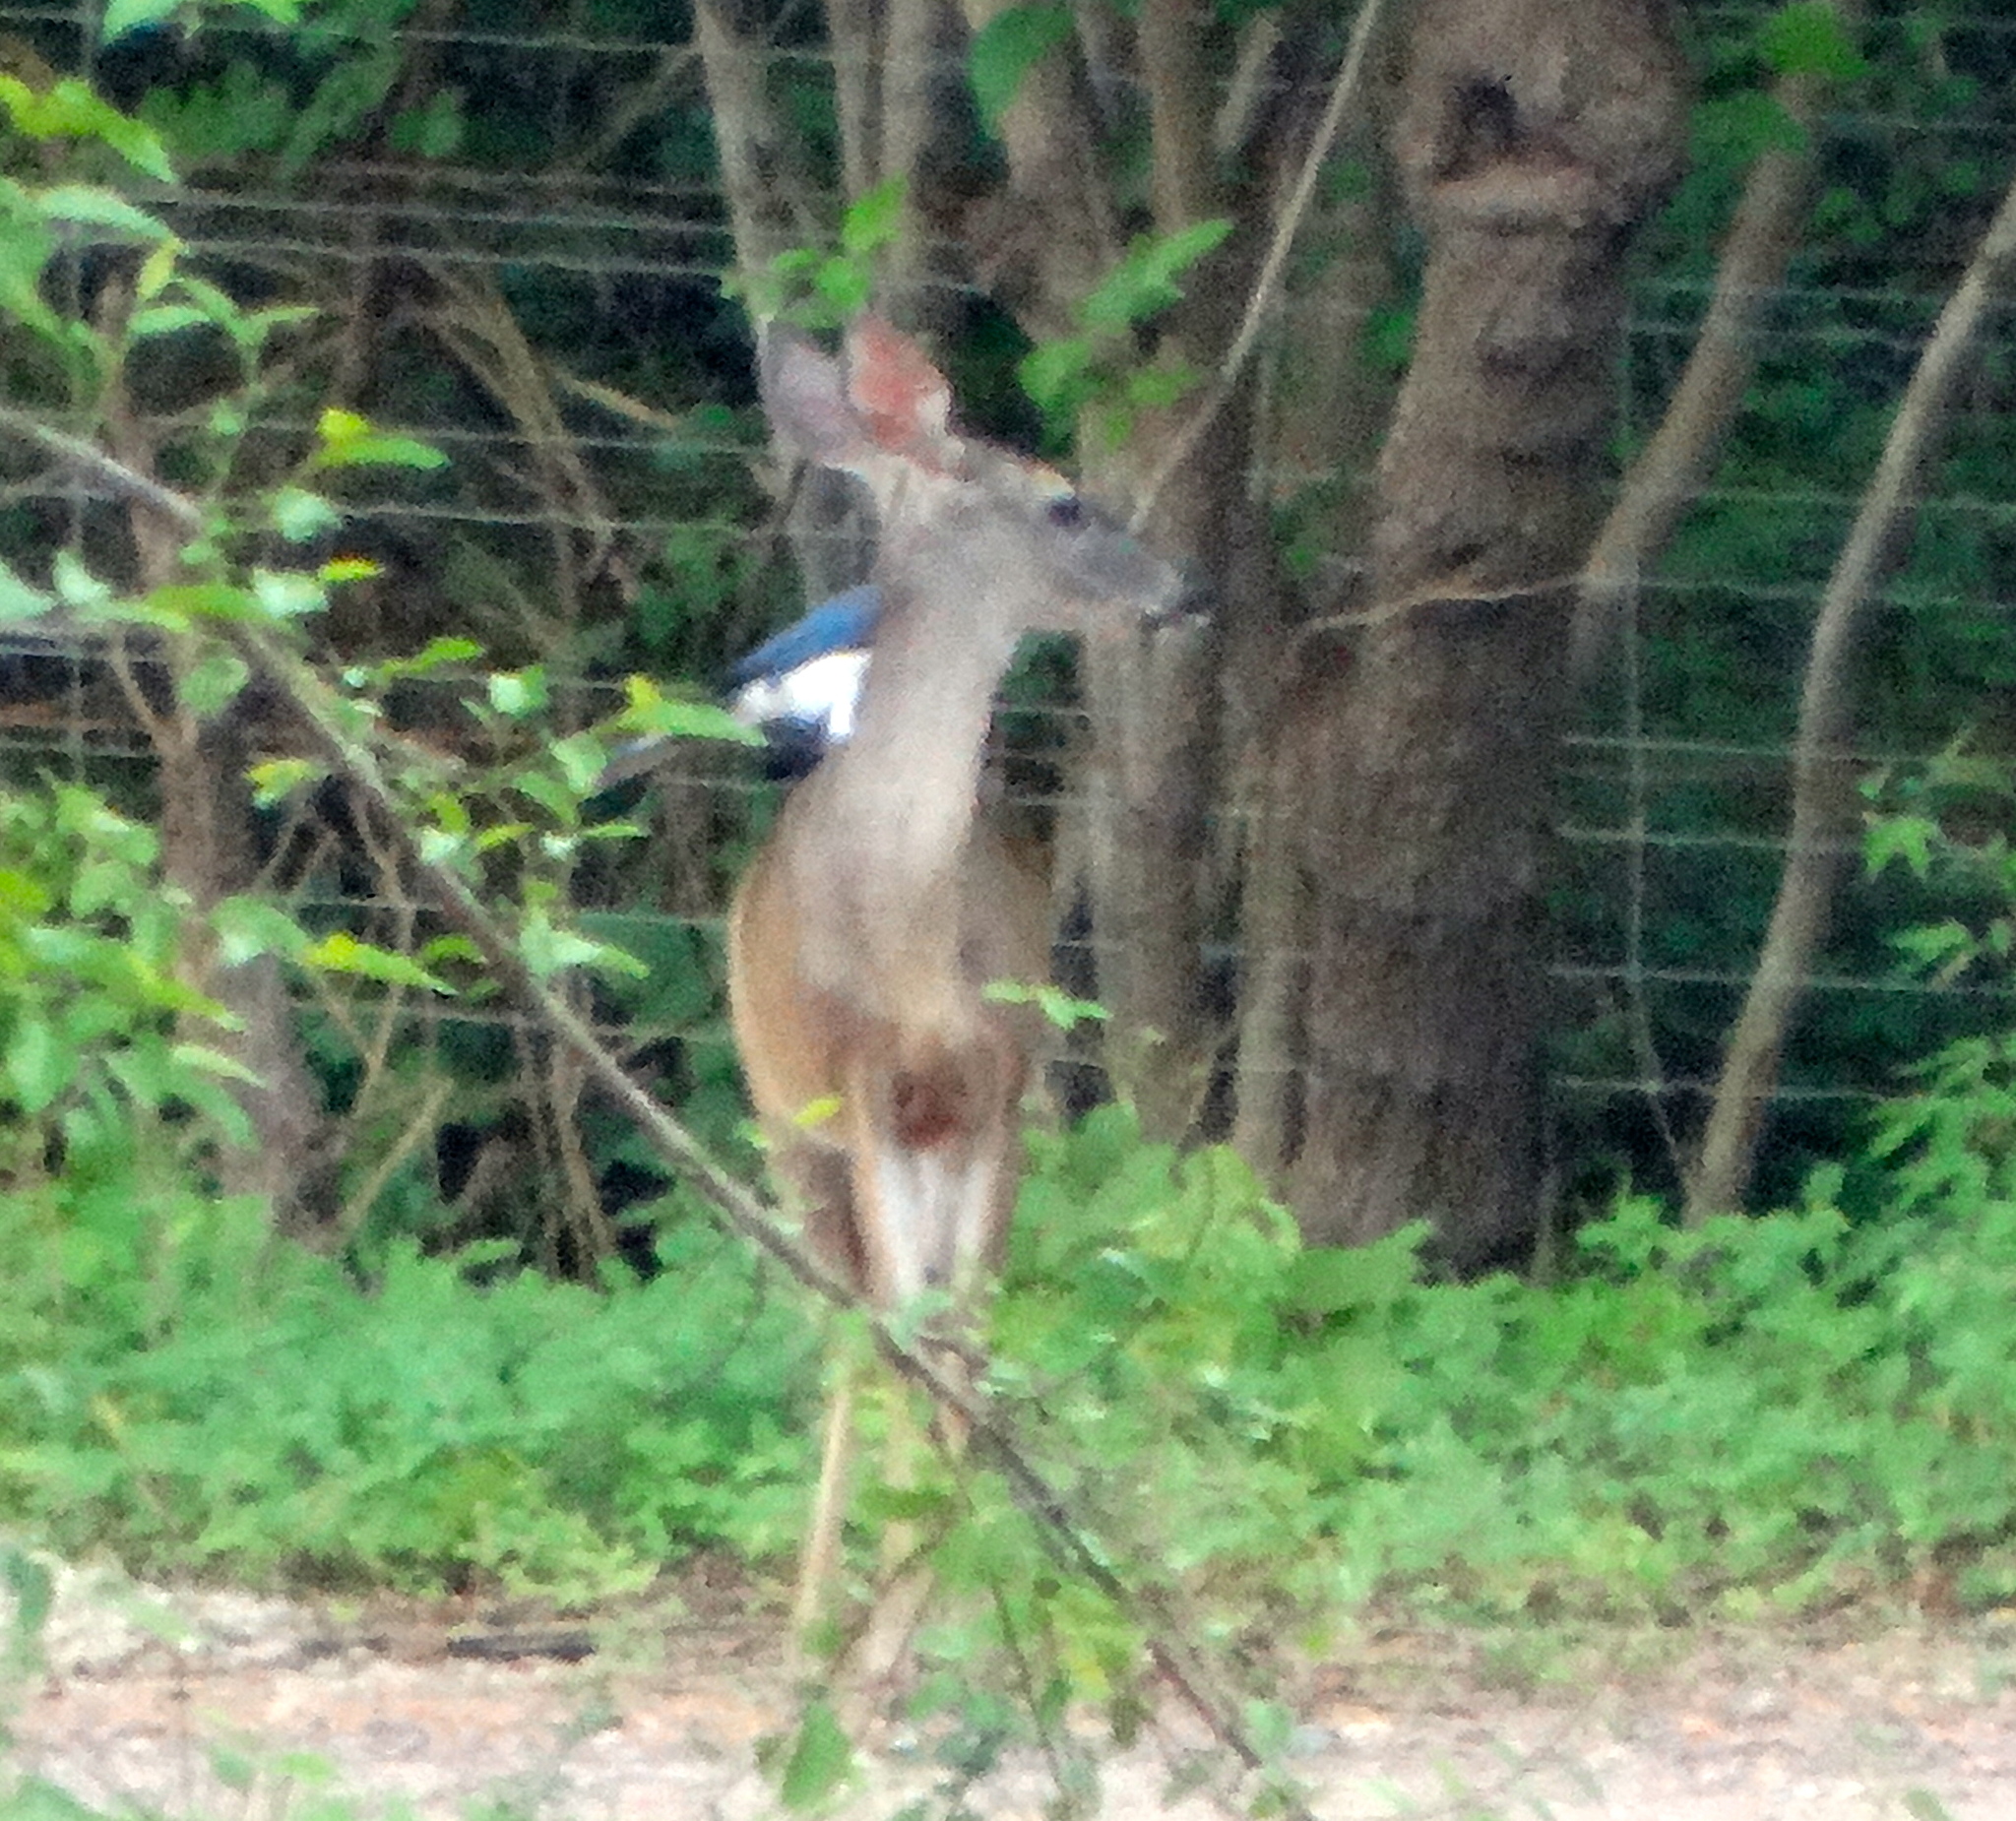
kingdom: Animalia
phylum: Chordata
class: Mammalia
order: Artiodactyla
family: Cervidae
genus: Odocoileus
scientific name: Odocoileus virginianus
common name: White-tailed deer
